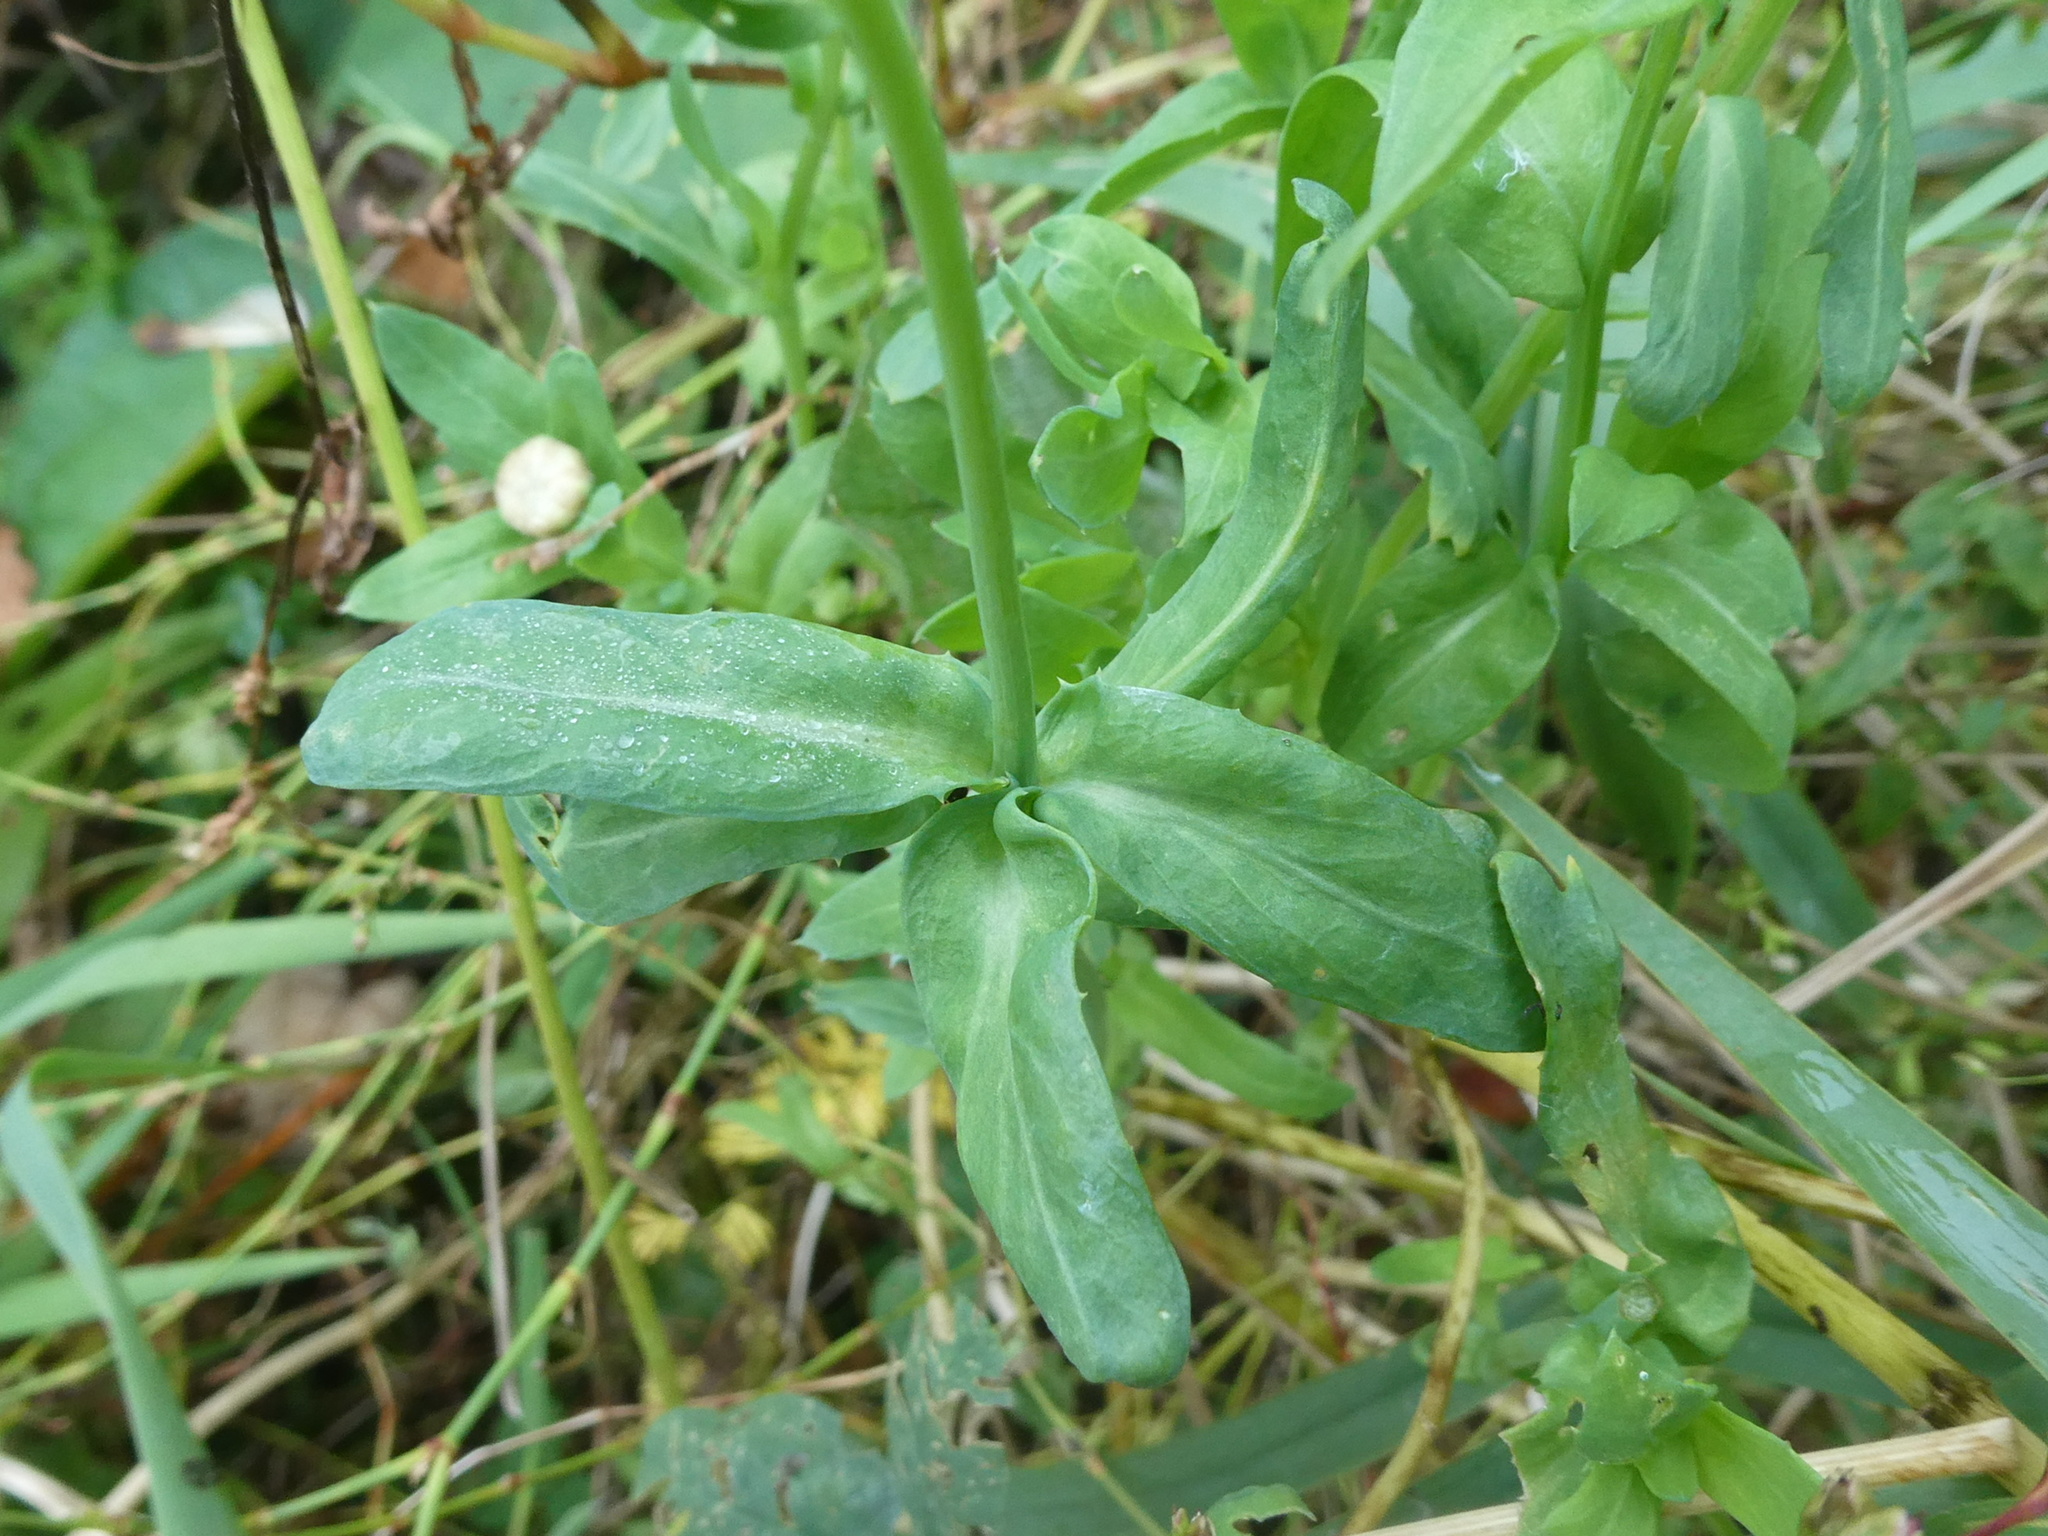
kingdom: Plantae
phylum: Tracheophyta
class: Magnoliopsida
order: Asterales
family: Asteraceae
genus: Glebionis
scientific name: Glebionis segetum
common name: Corndaisy
